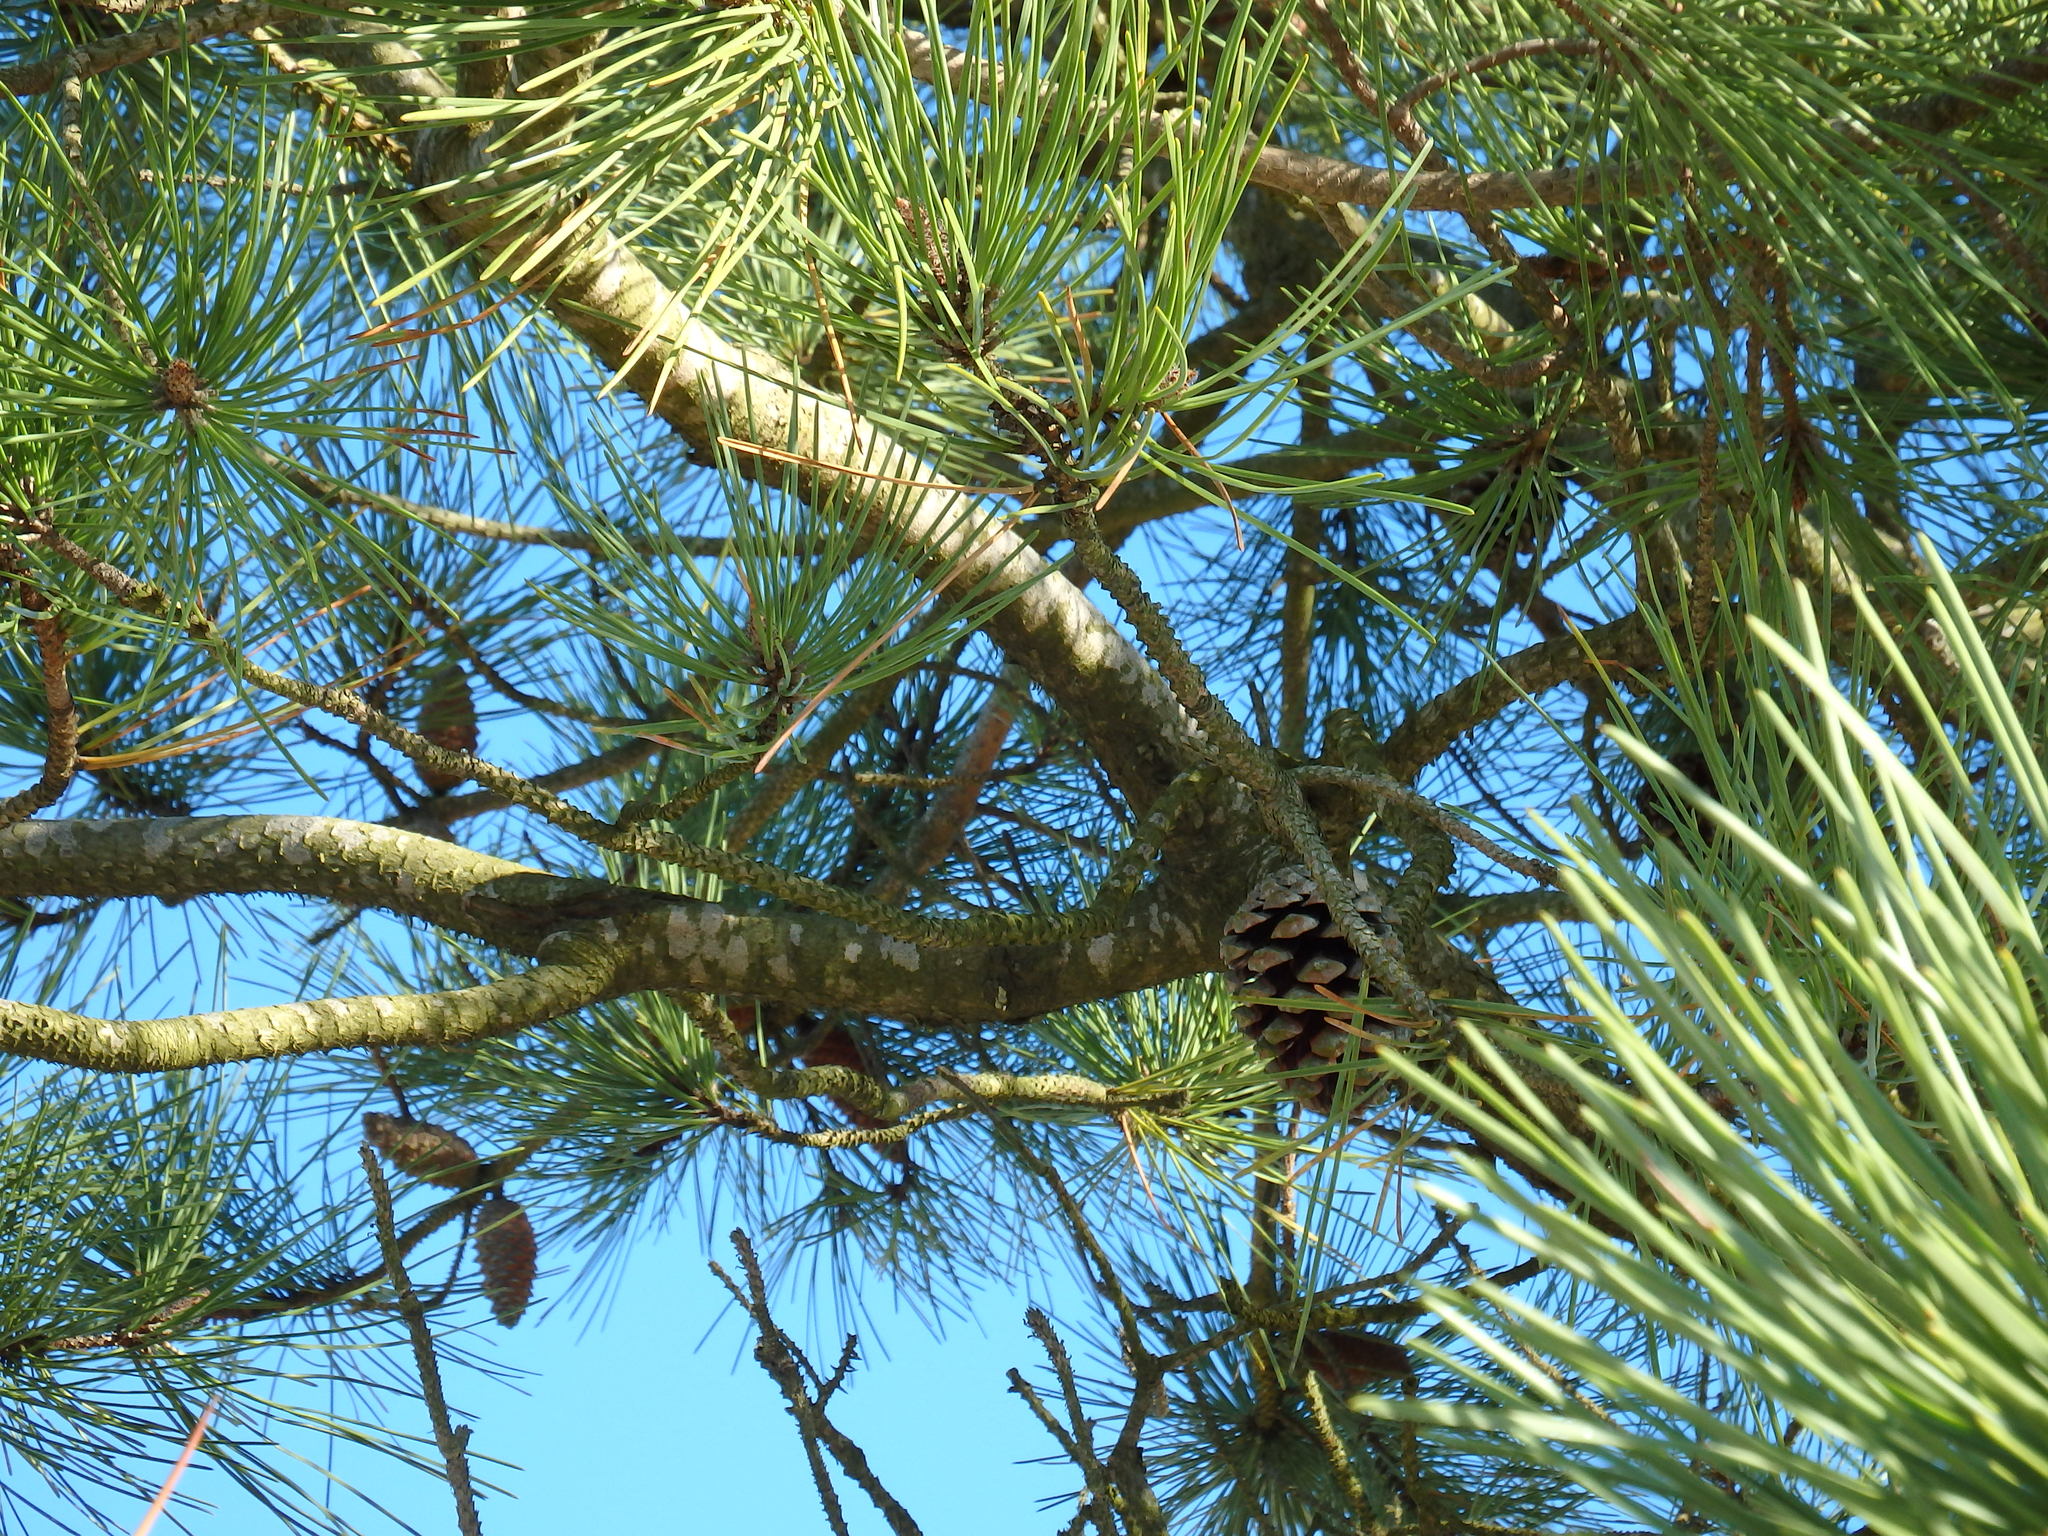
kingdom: Plantae
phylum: Tracheophyta
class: Pinopsida
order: Pinales
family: Pinaceae
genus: Pinus
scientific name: Pinus pinaster
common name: Maritime pine
